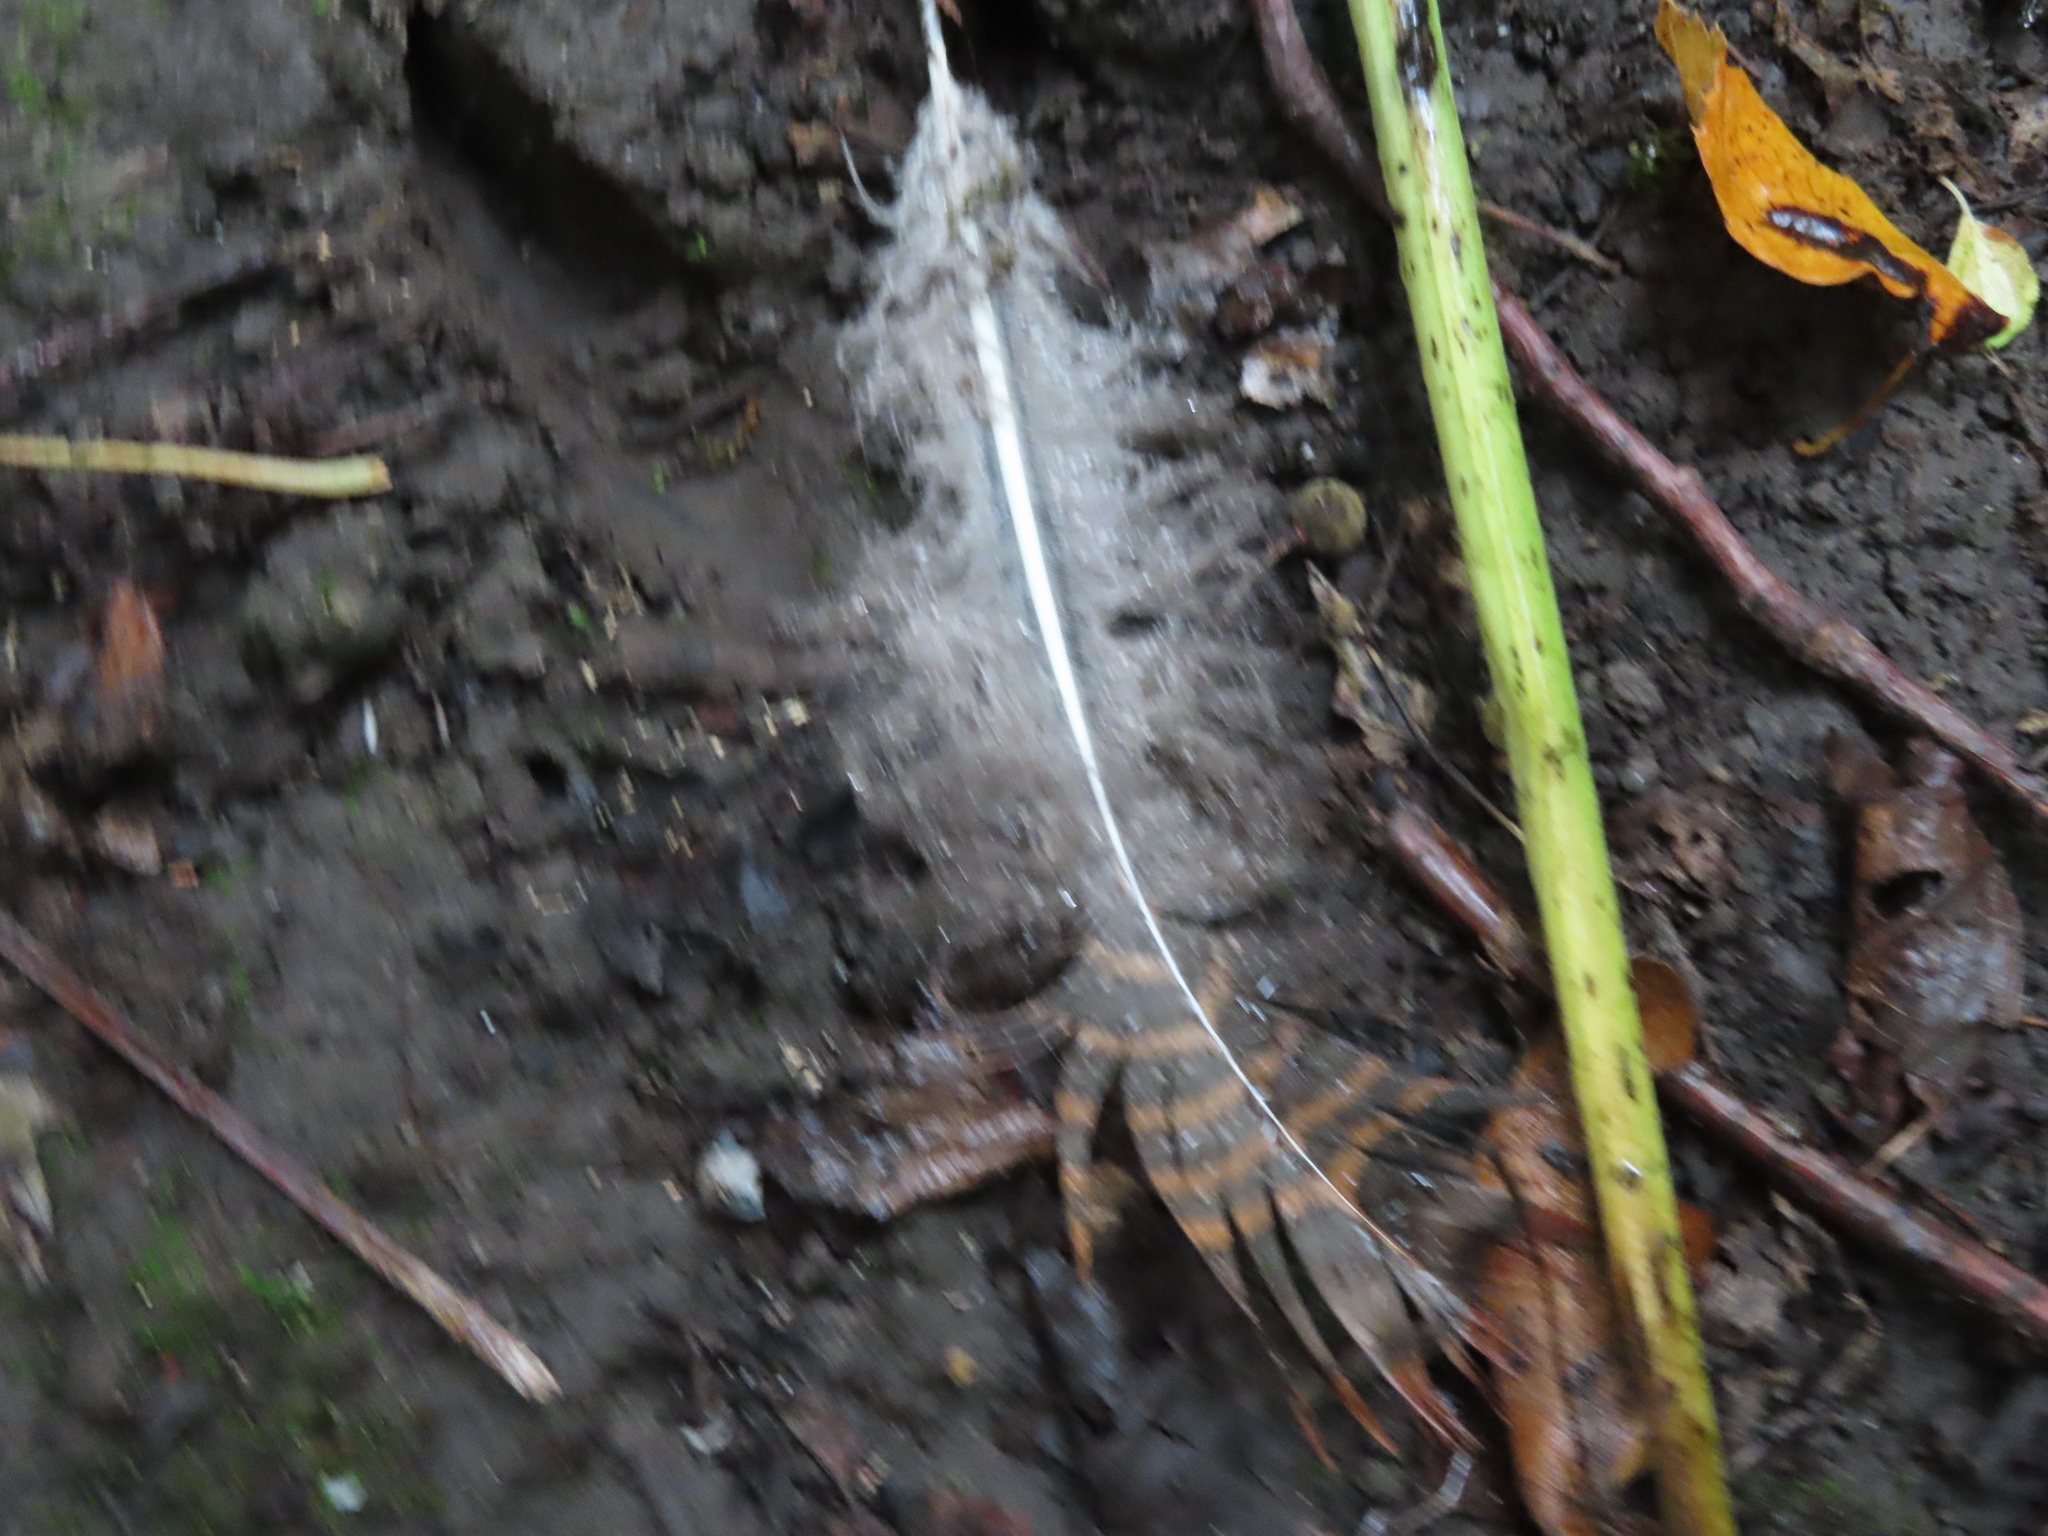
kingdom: Animalia
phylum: Chordata
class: Aves
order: Galliformes
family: Phasianidae
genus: Meleagris
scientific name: Meleagris gallopavo
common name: Wild turkey
